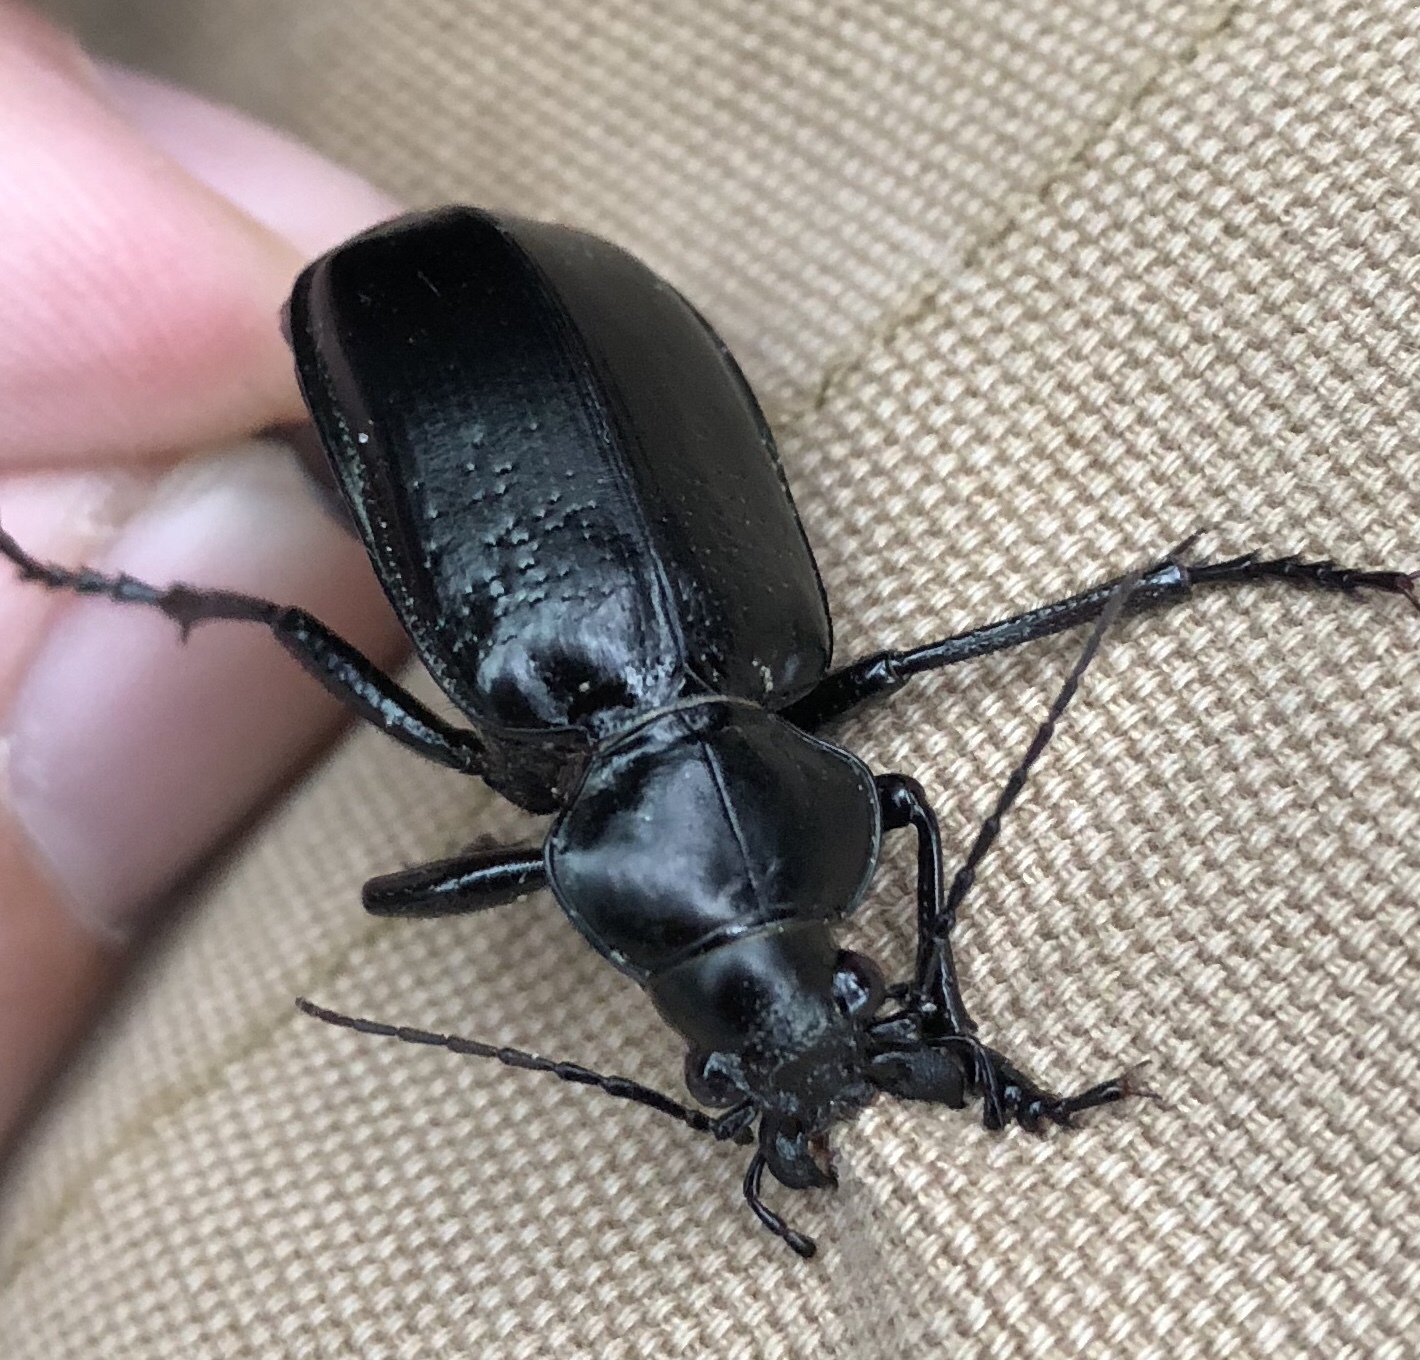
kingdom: Animalia
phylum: Arthropoda
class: Insecta
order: Coleoptera
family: Carabidae
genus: Calosoma
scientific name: Calosoma marginale
